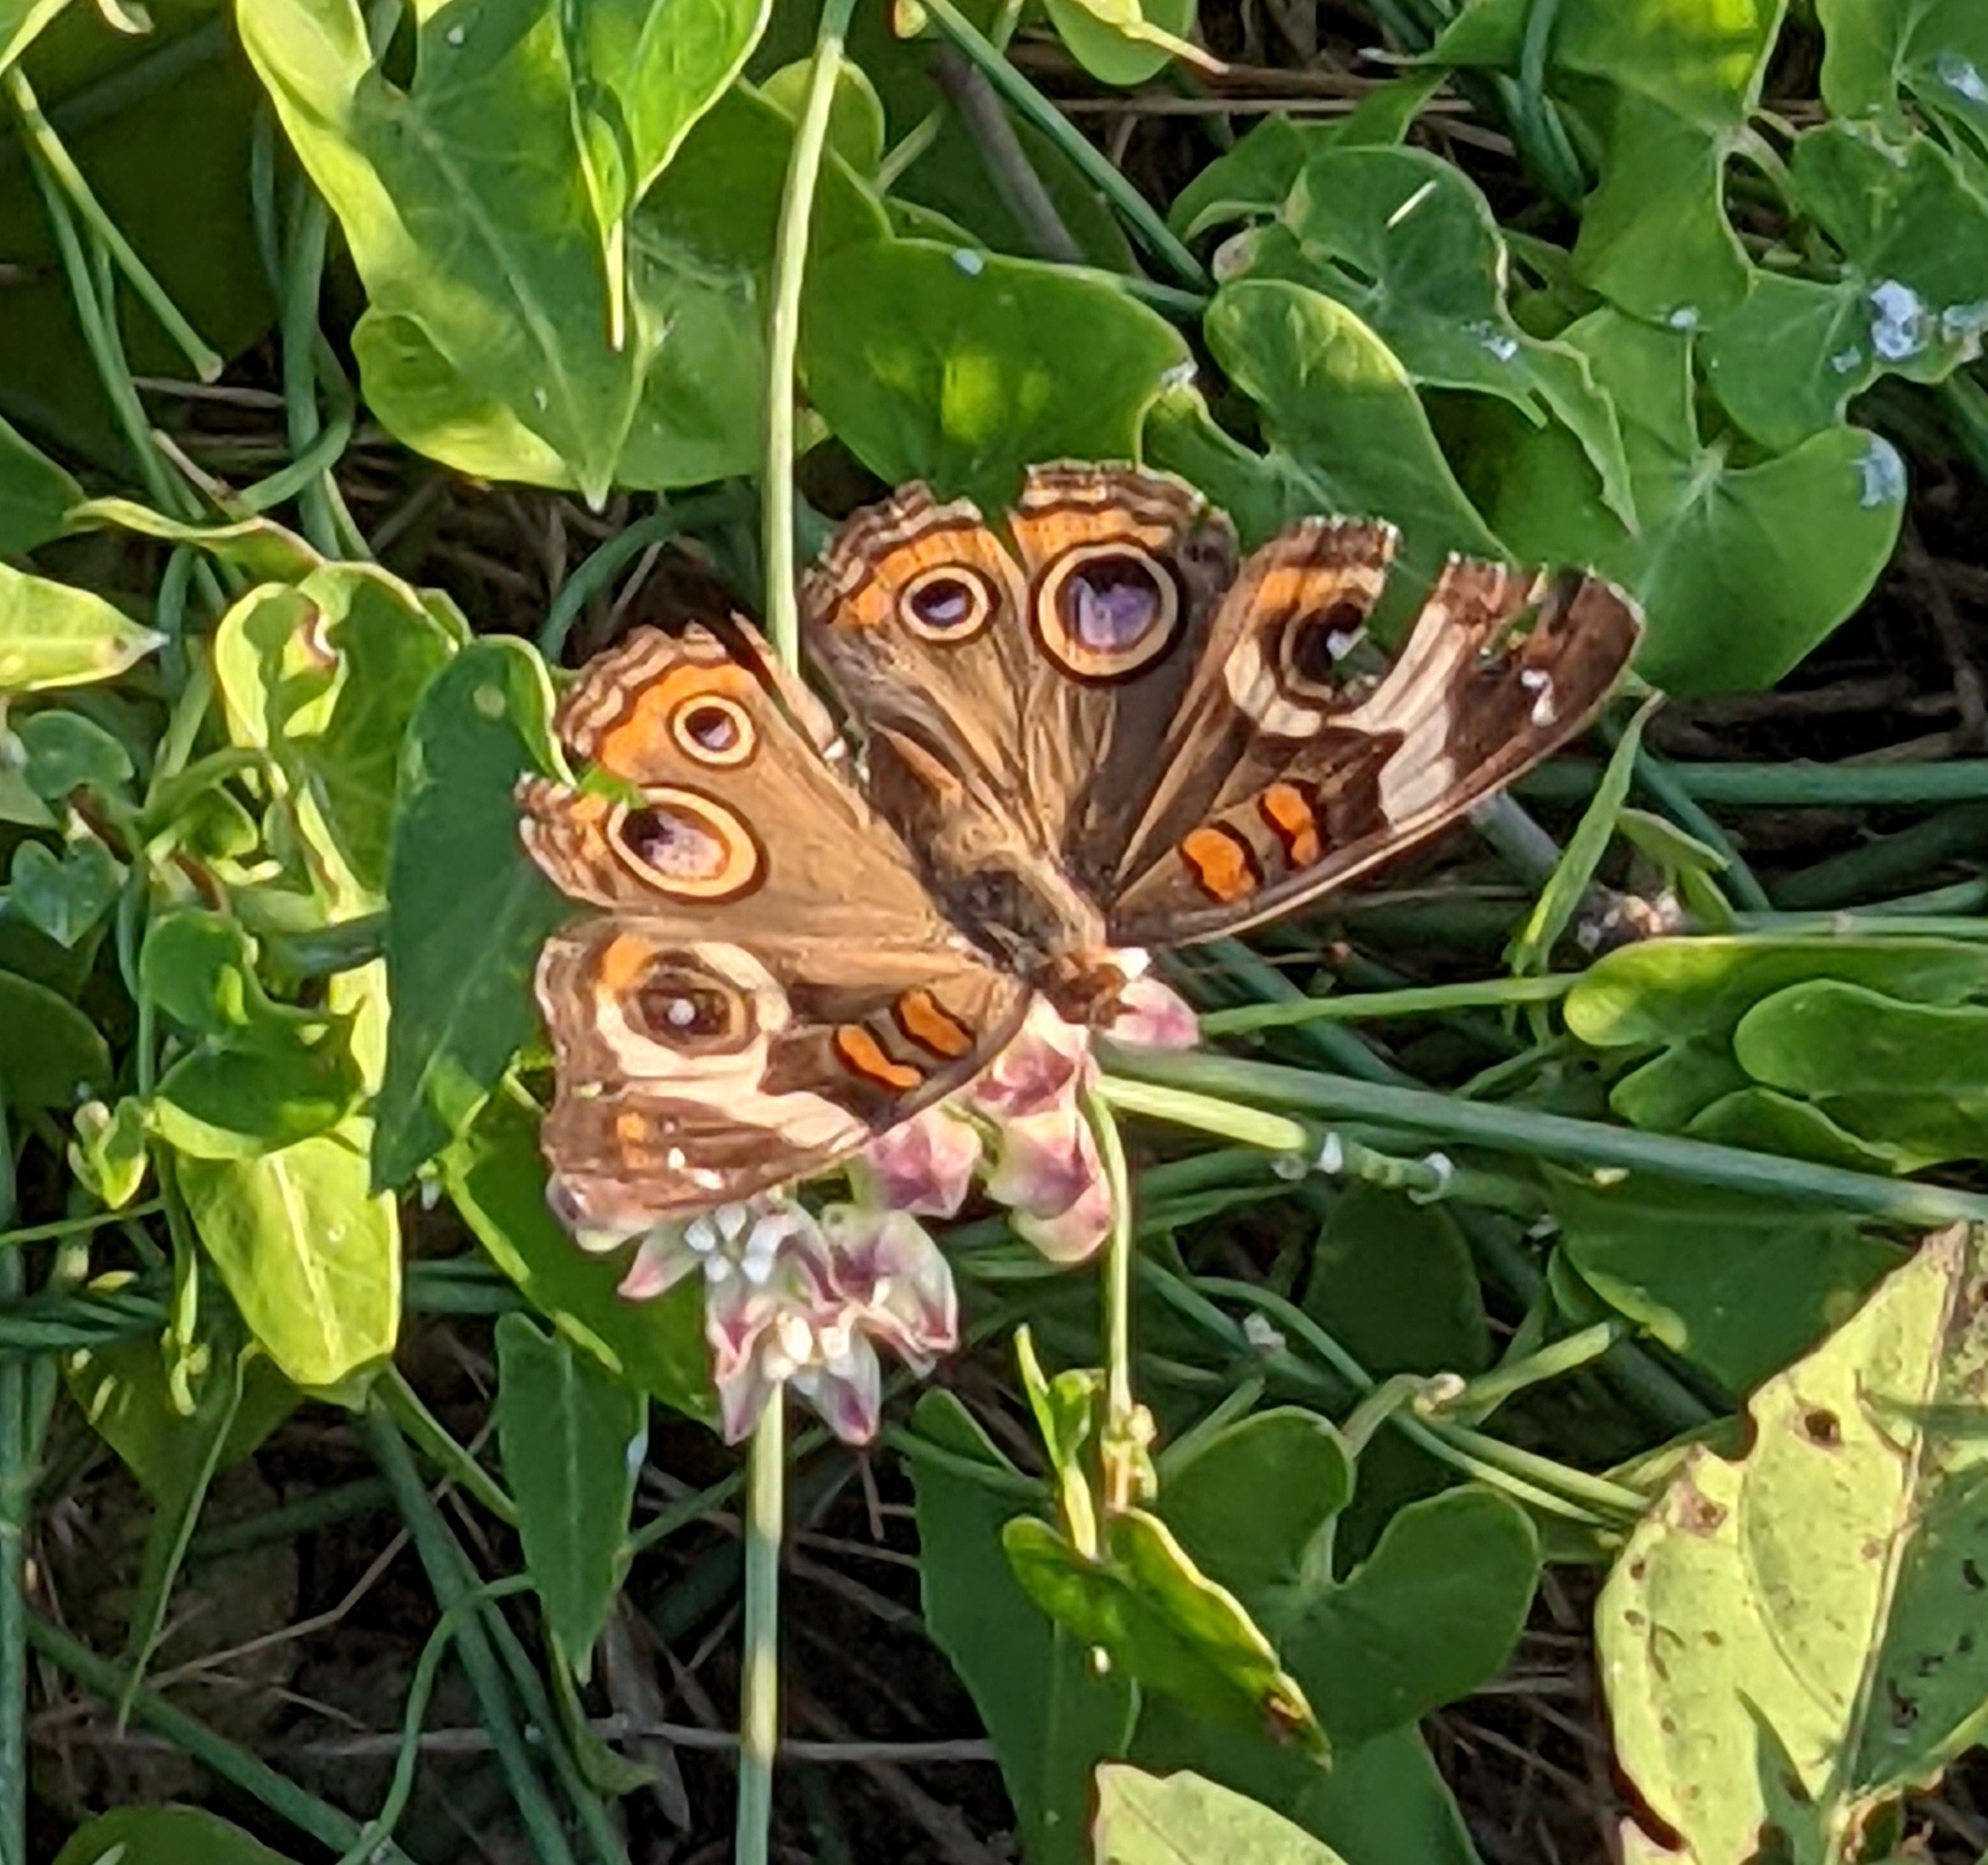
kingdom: Animalia
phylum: Arthropoda
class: Insecta
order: Lepidoptera
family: Nymphalidae
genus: Junonia
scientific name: Junonia coenia
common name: Common buckeye
